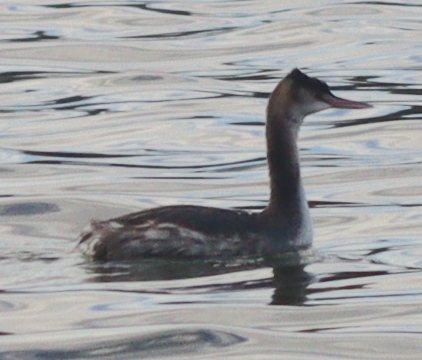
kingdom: Animalia
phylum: Chordata
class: Aves
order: Podicipediformes
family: Podicipedidae
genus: Podiceps
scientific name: Podiceps cristatus
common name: Great crested grebe
